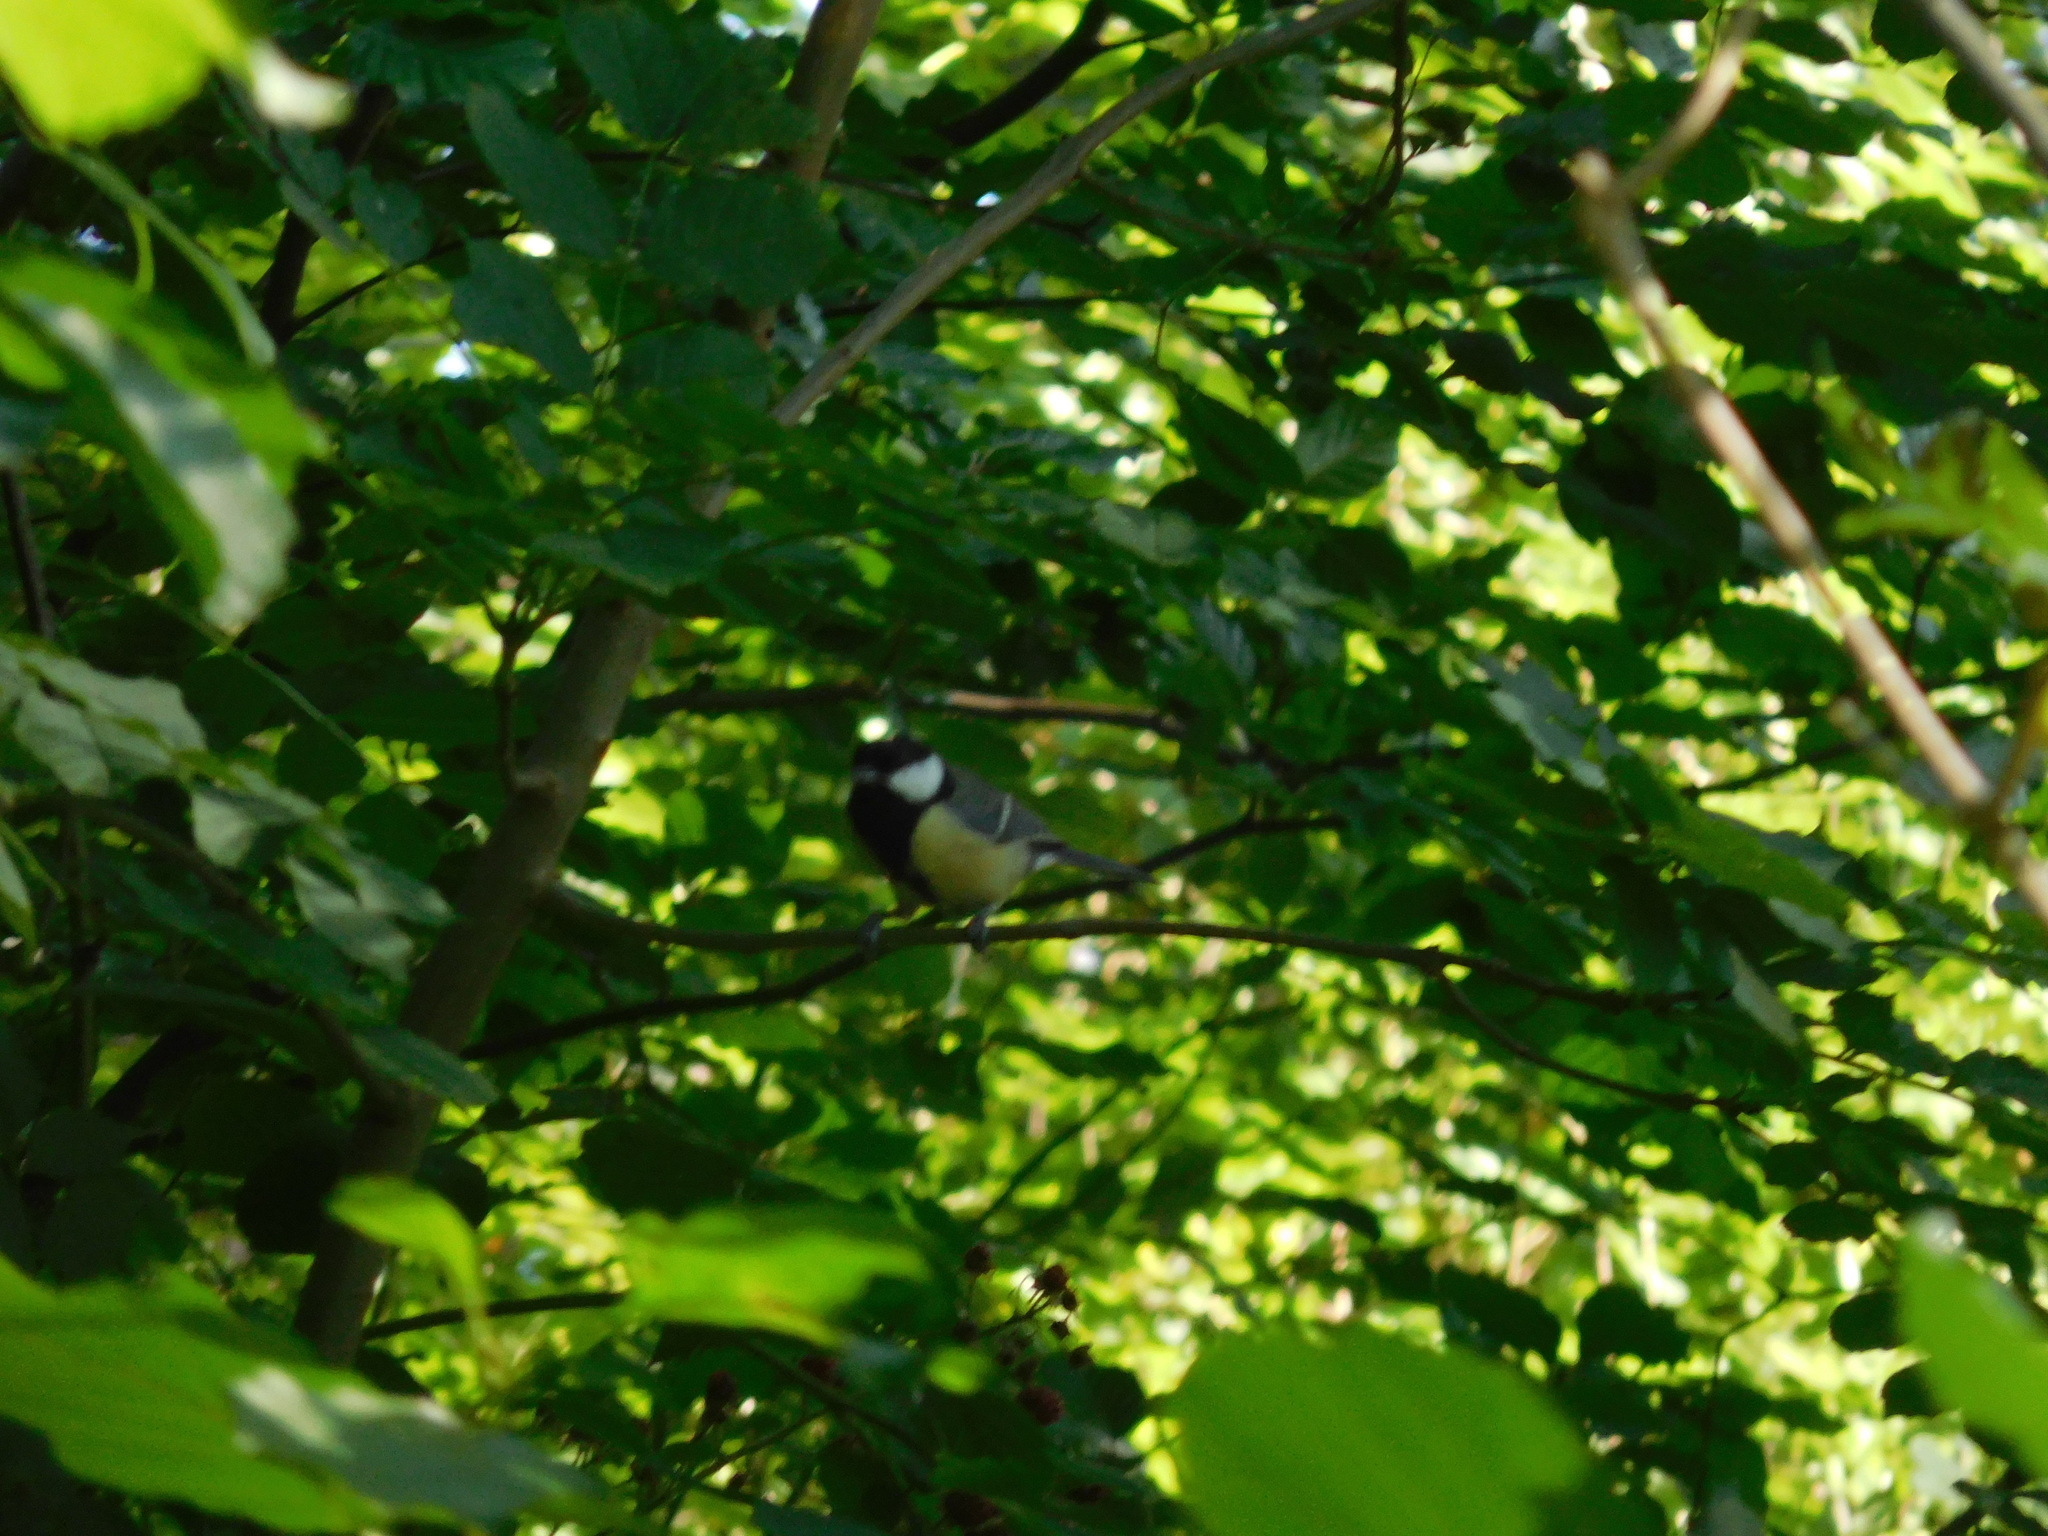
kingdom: Animalia
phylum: Chordata
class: Aves
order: Passeriformes
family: Paridae
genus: Parus
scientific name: Parus major
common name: Great tit
